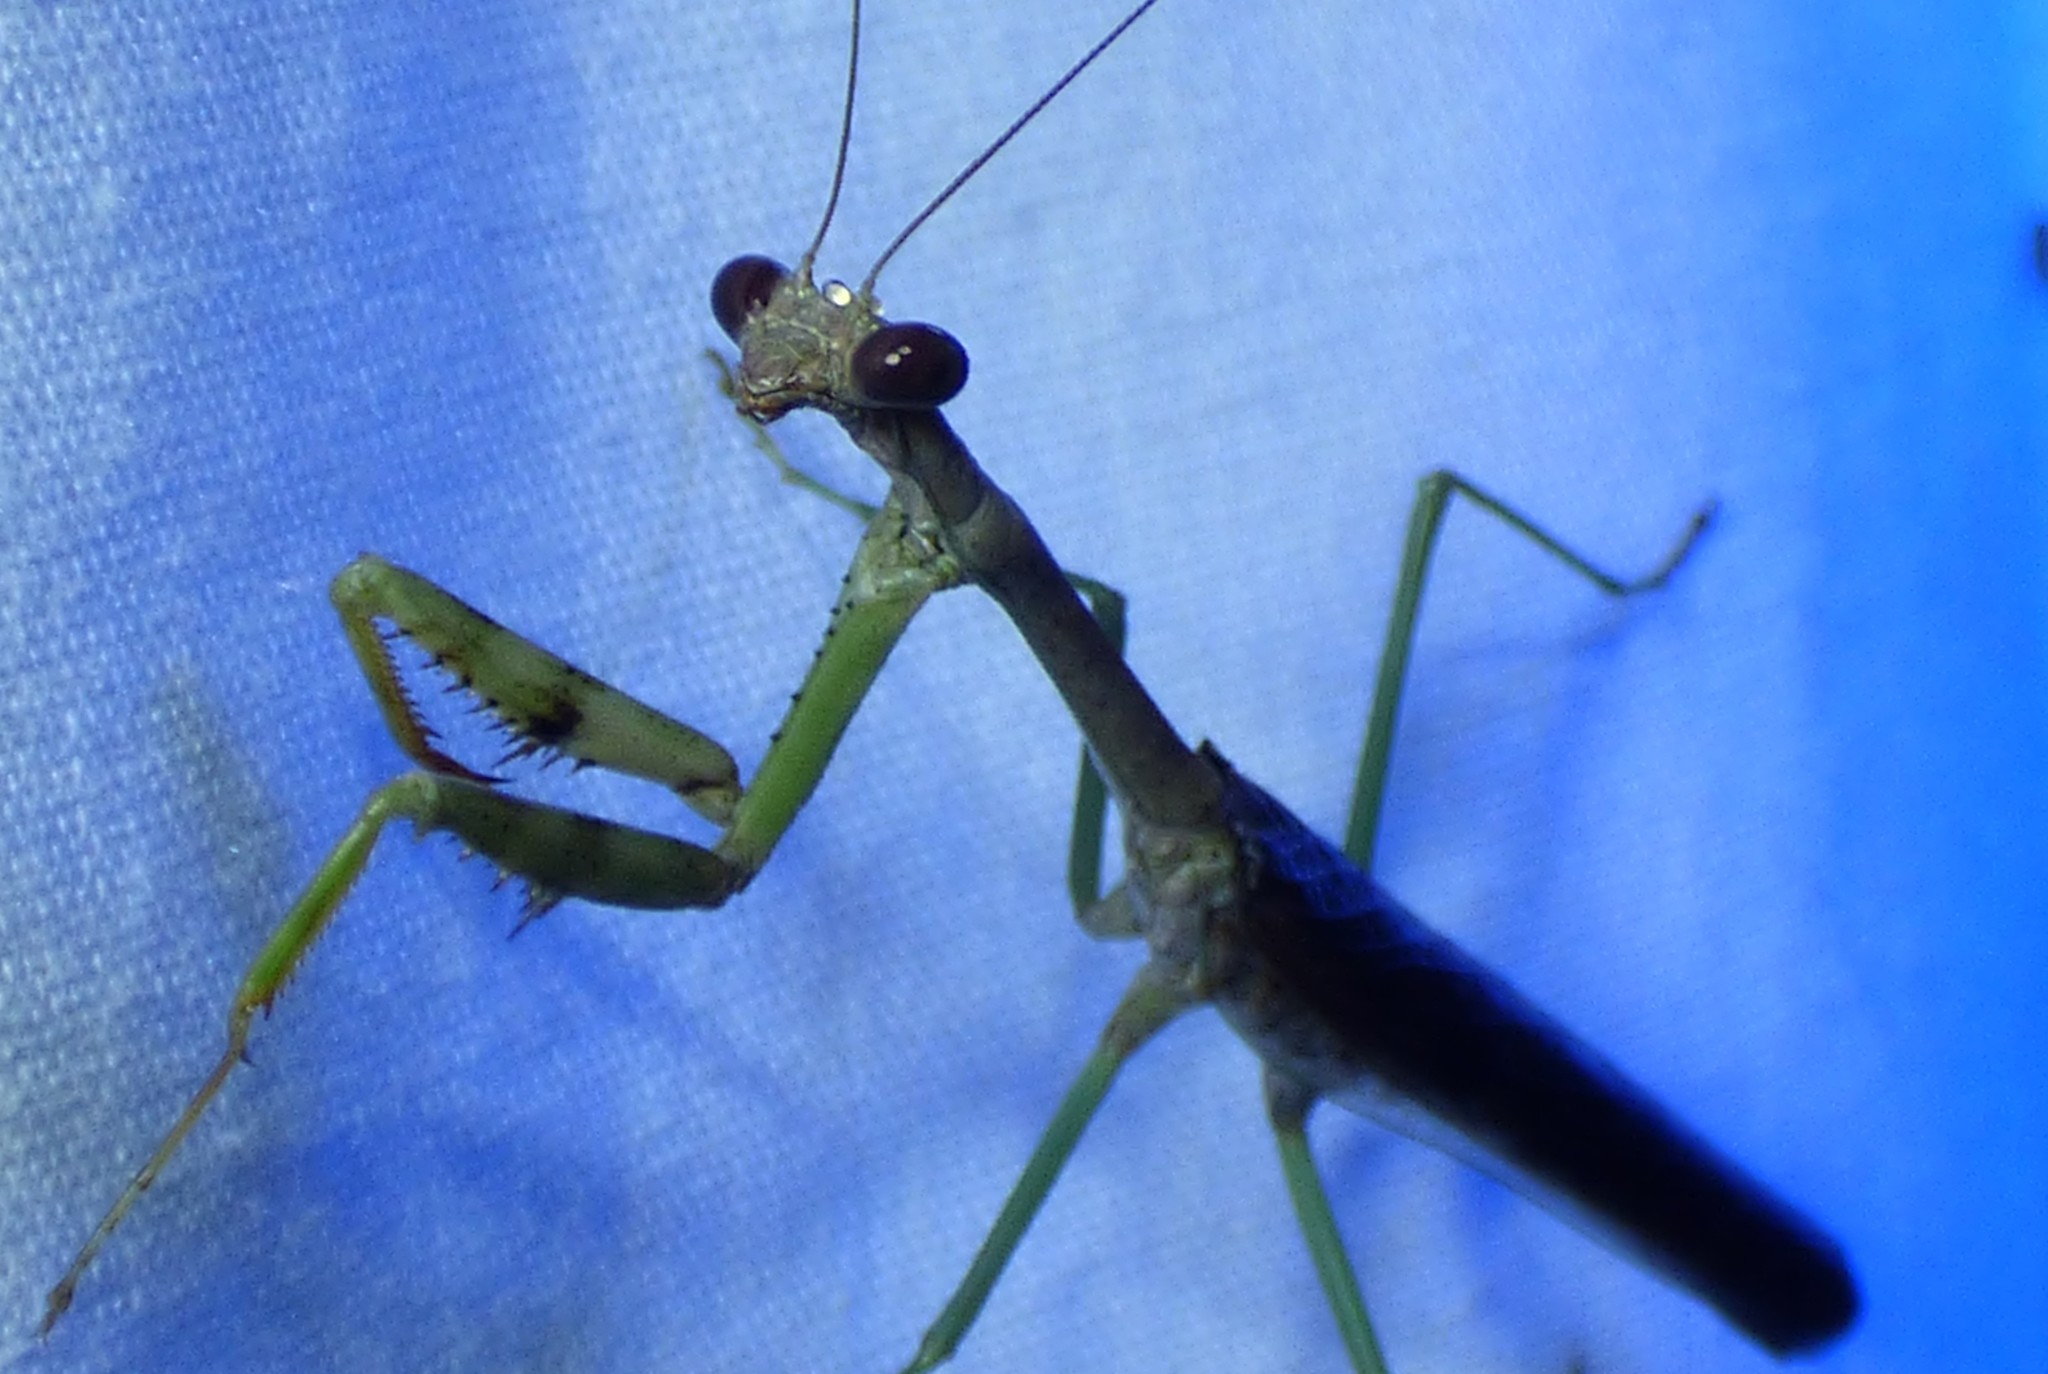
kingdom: Animalia
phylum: Arthropoda
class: Insecta
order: Mantodea
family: Mantidae
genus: Stagmomantis
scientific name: Stagmomantis carolina
